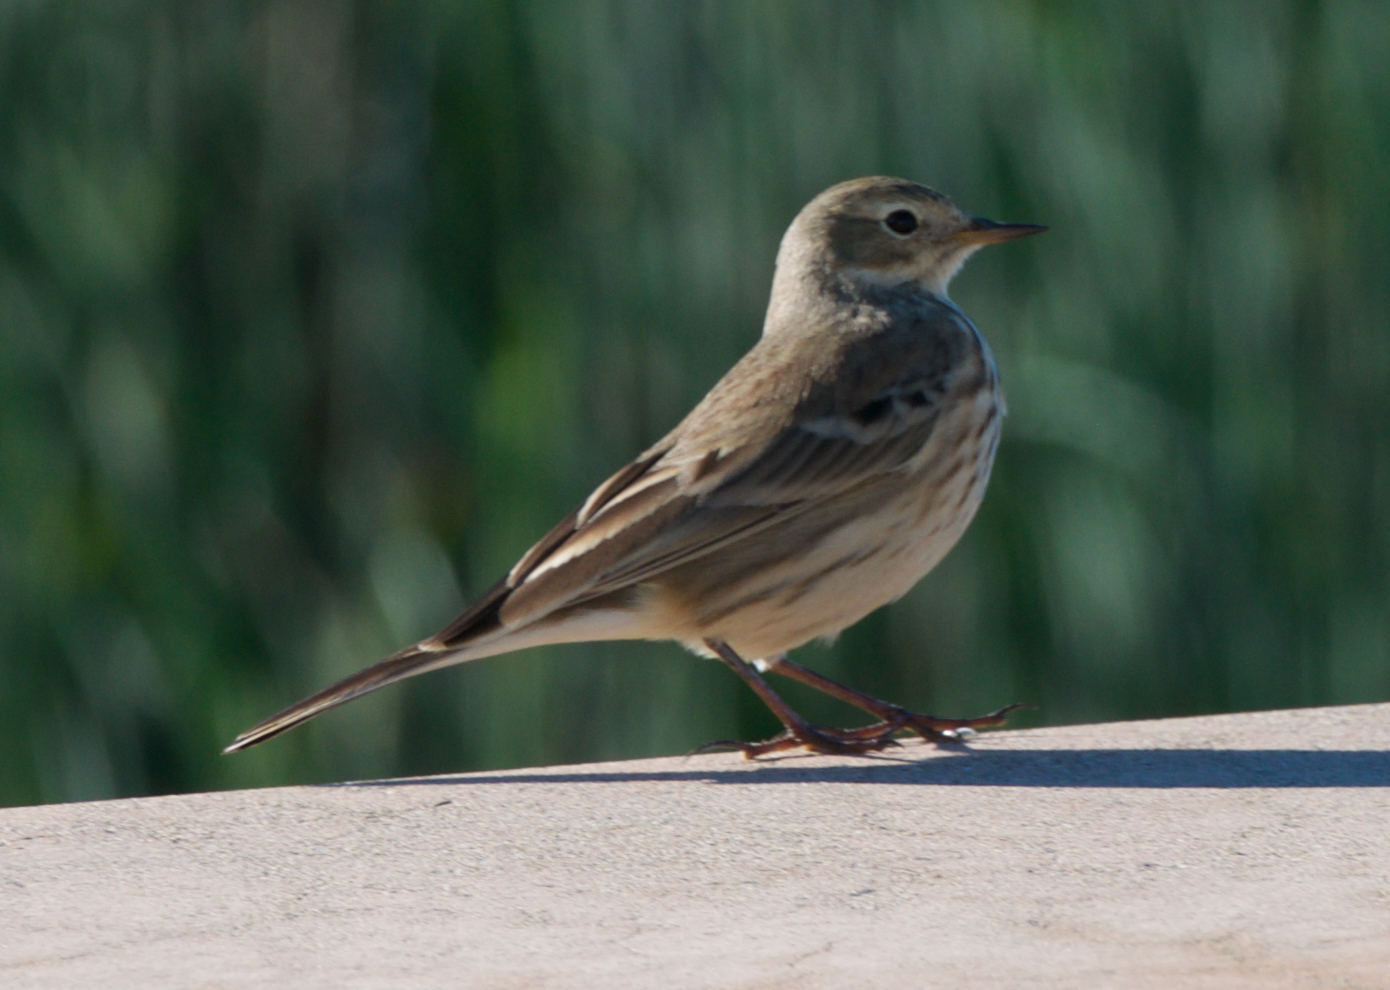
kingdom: Animalia
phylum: Chordata
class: Aves
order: Passeriformes
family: Motacillidae
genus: Anthus
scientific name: Anthus rubescens
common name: Buff-bellied pipit
